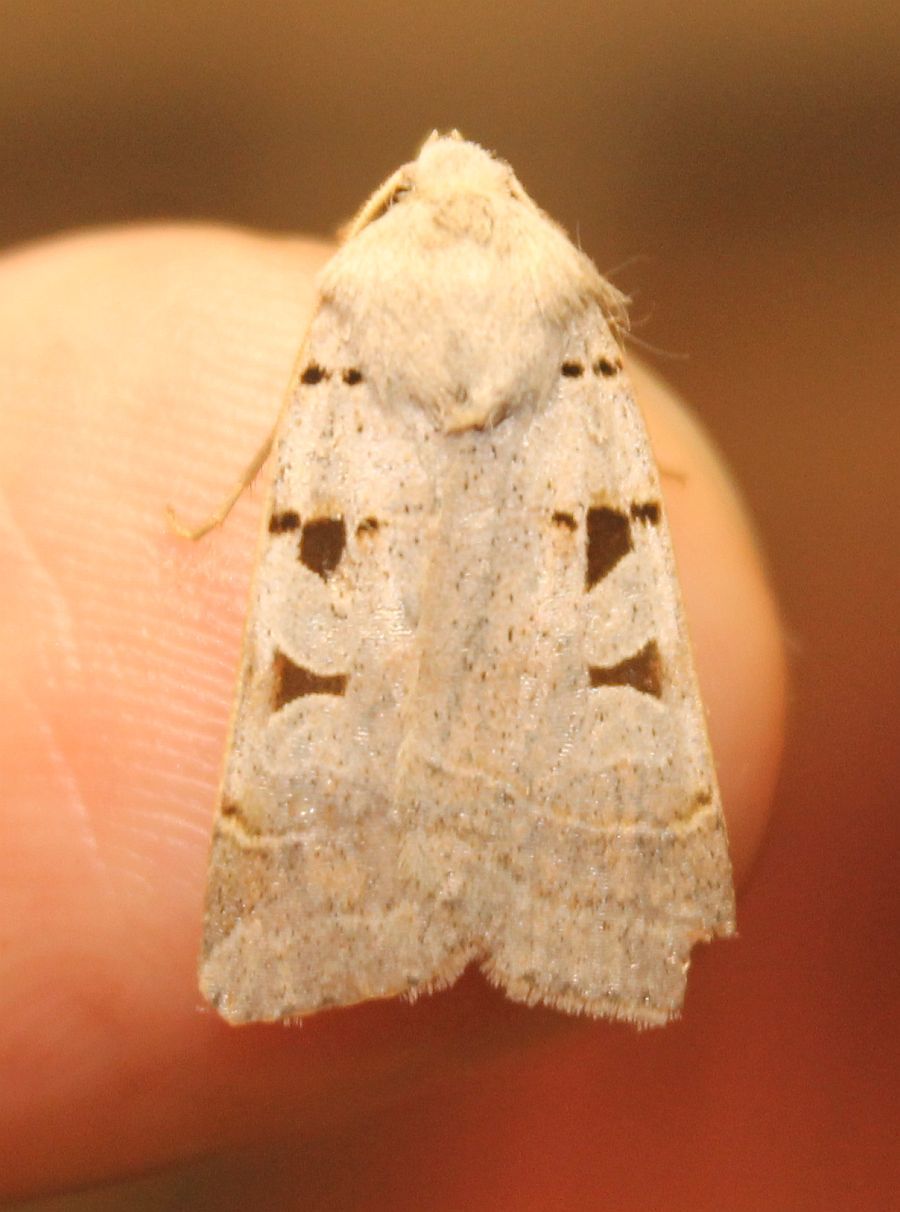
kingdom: Animalia
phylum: Arthropoda
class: Insecta
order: Lepidoptera
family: Noctuidae
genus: Eugnorisma
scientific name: Eugnorisma glareosa
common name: Autumnal rustic
